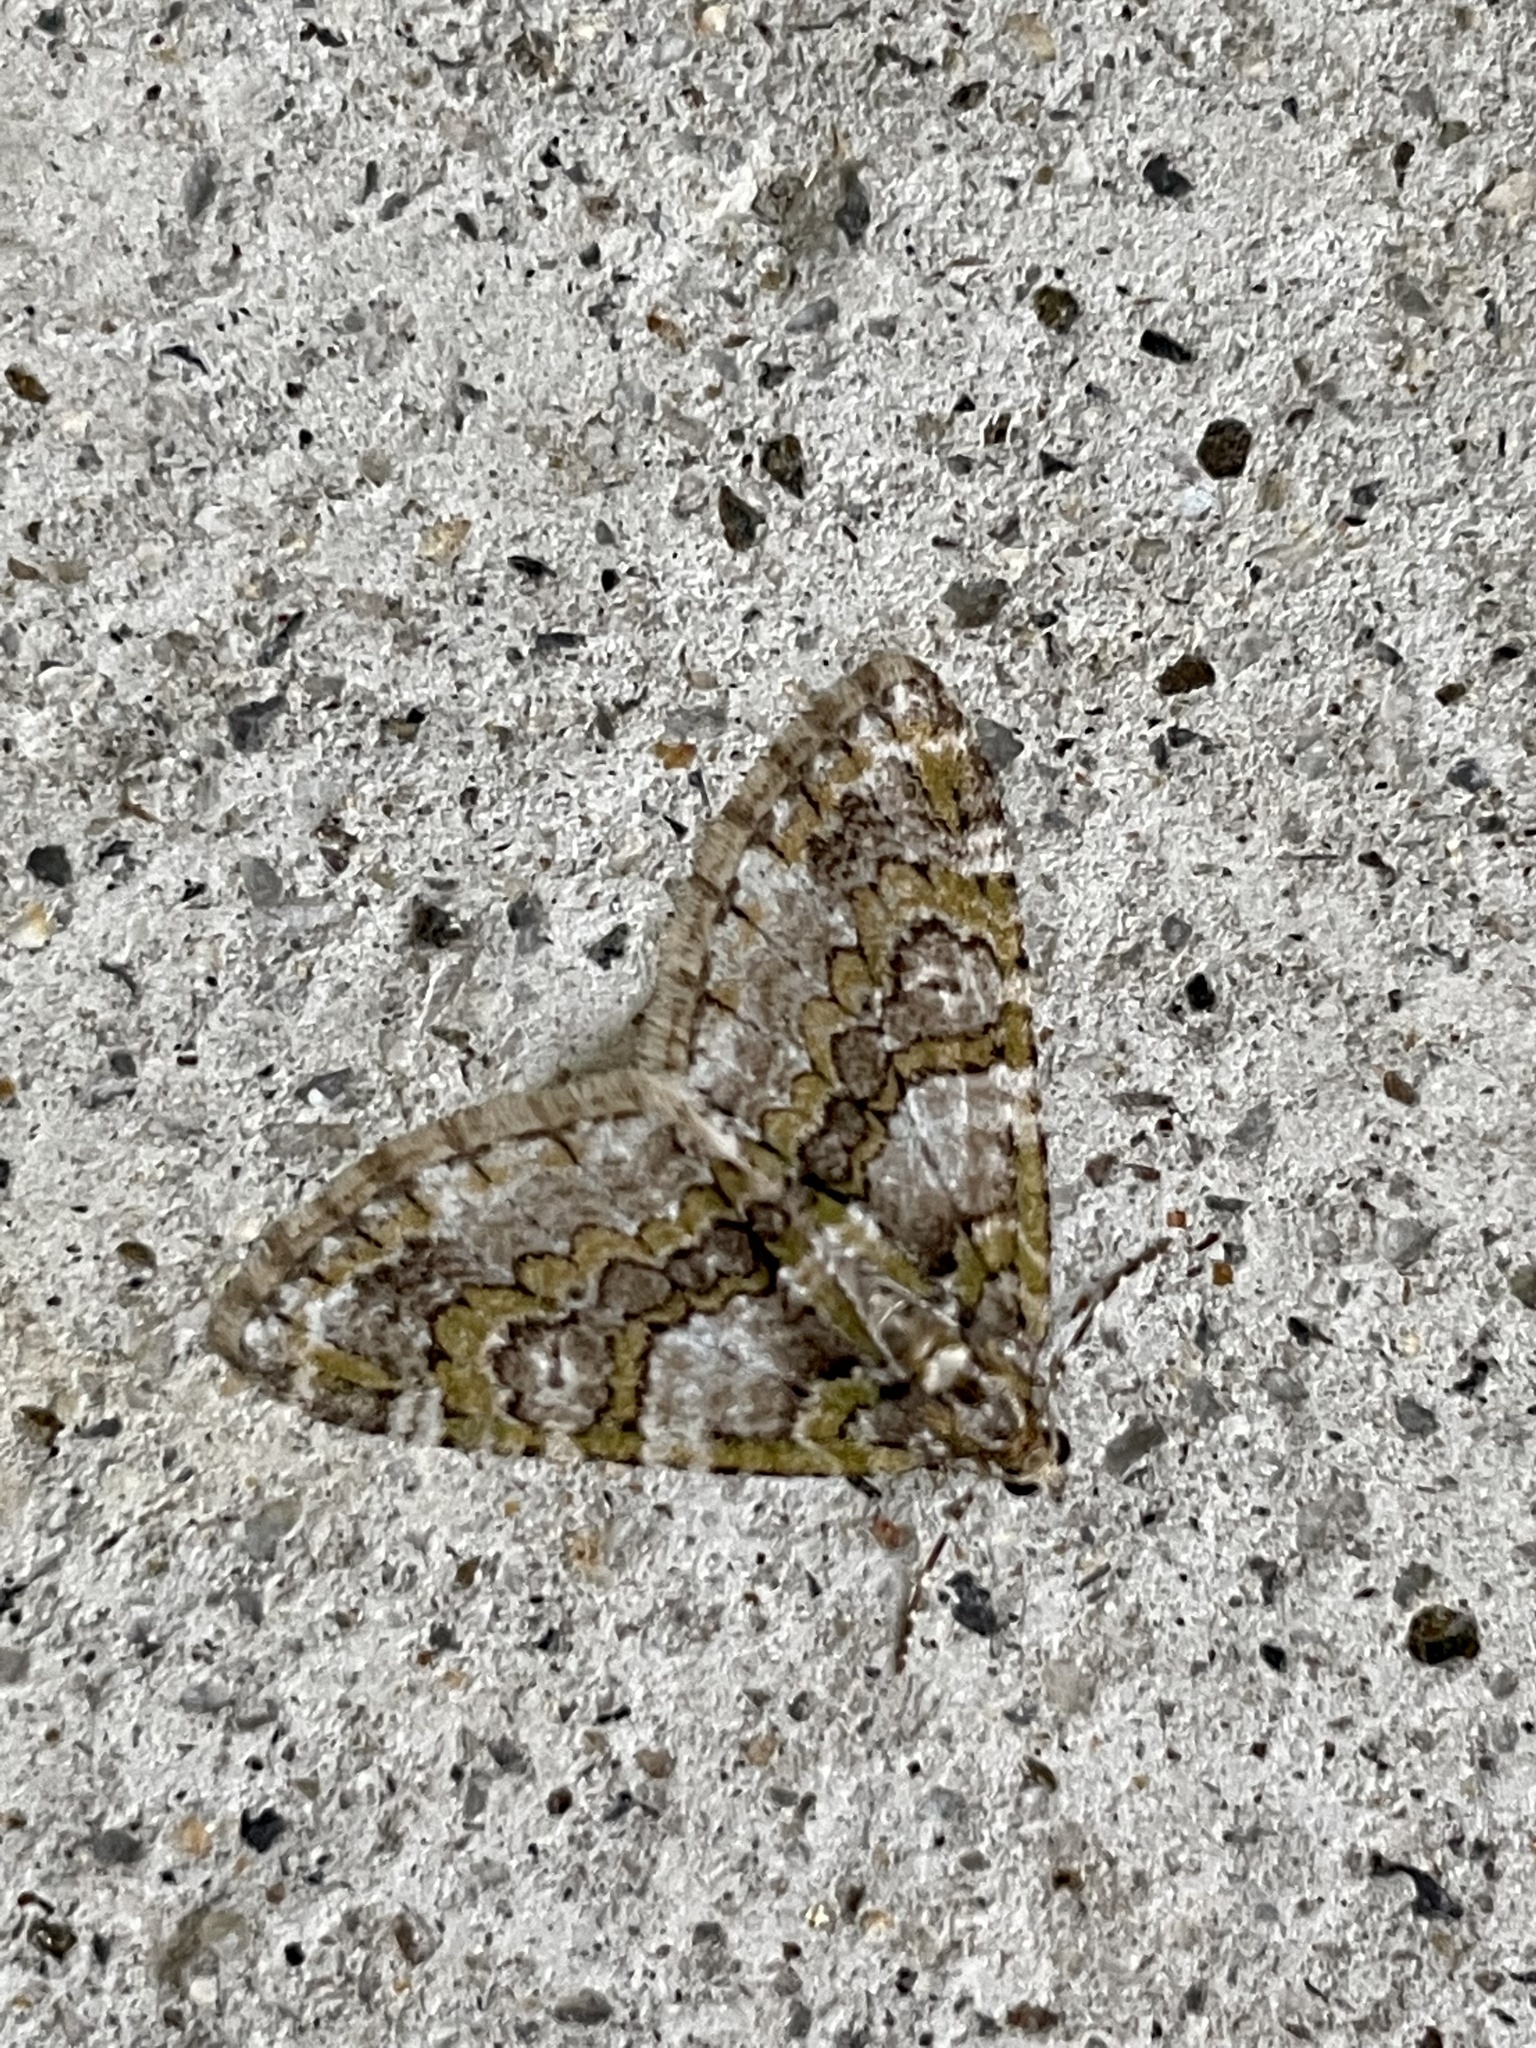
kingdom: Animalia
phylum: Arthropoda
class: Insecta
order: Lepidoptera
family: Geometridae
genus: Esakiopteryx
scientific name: Esakiopteryx volitans
